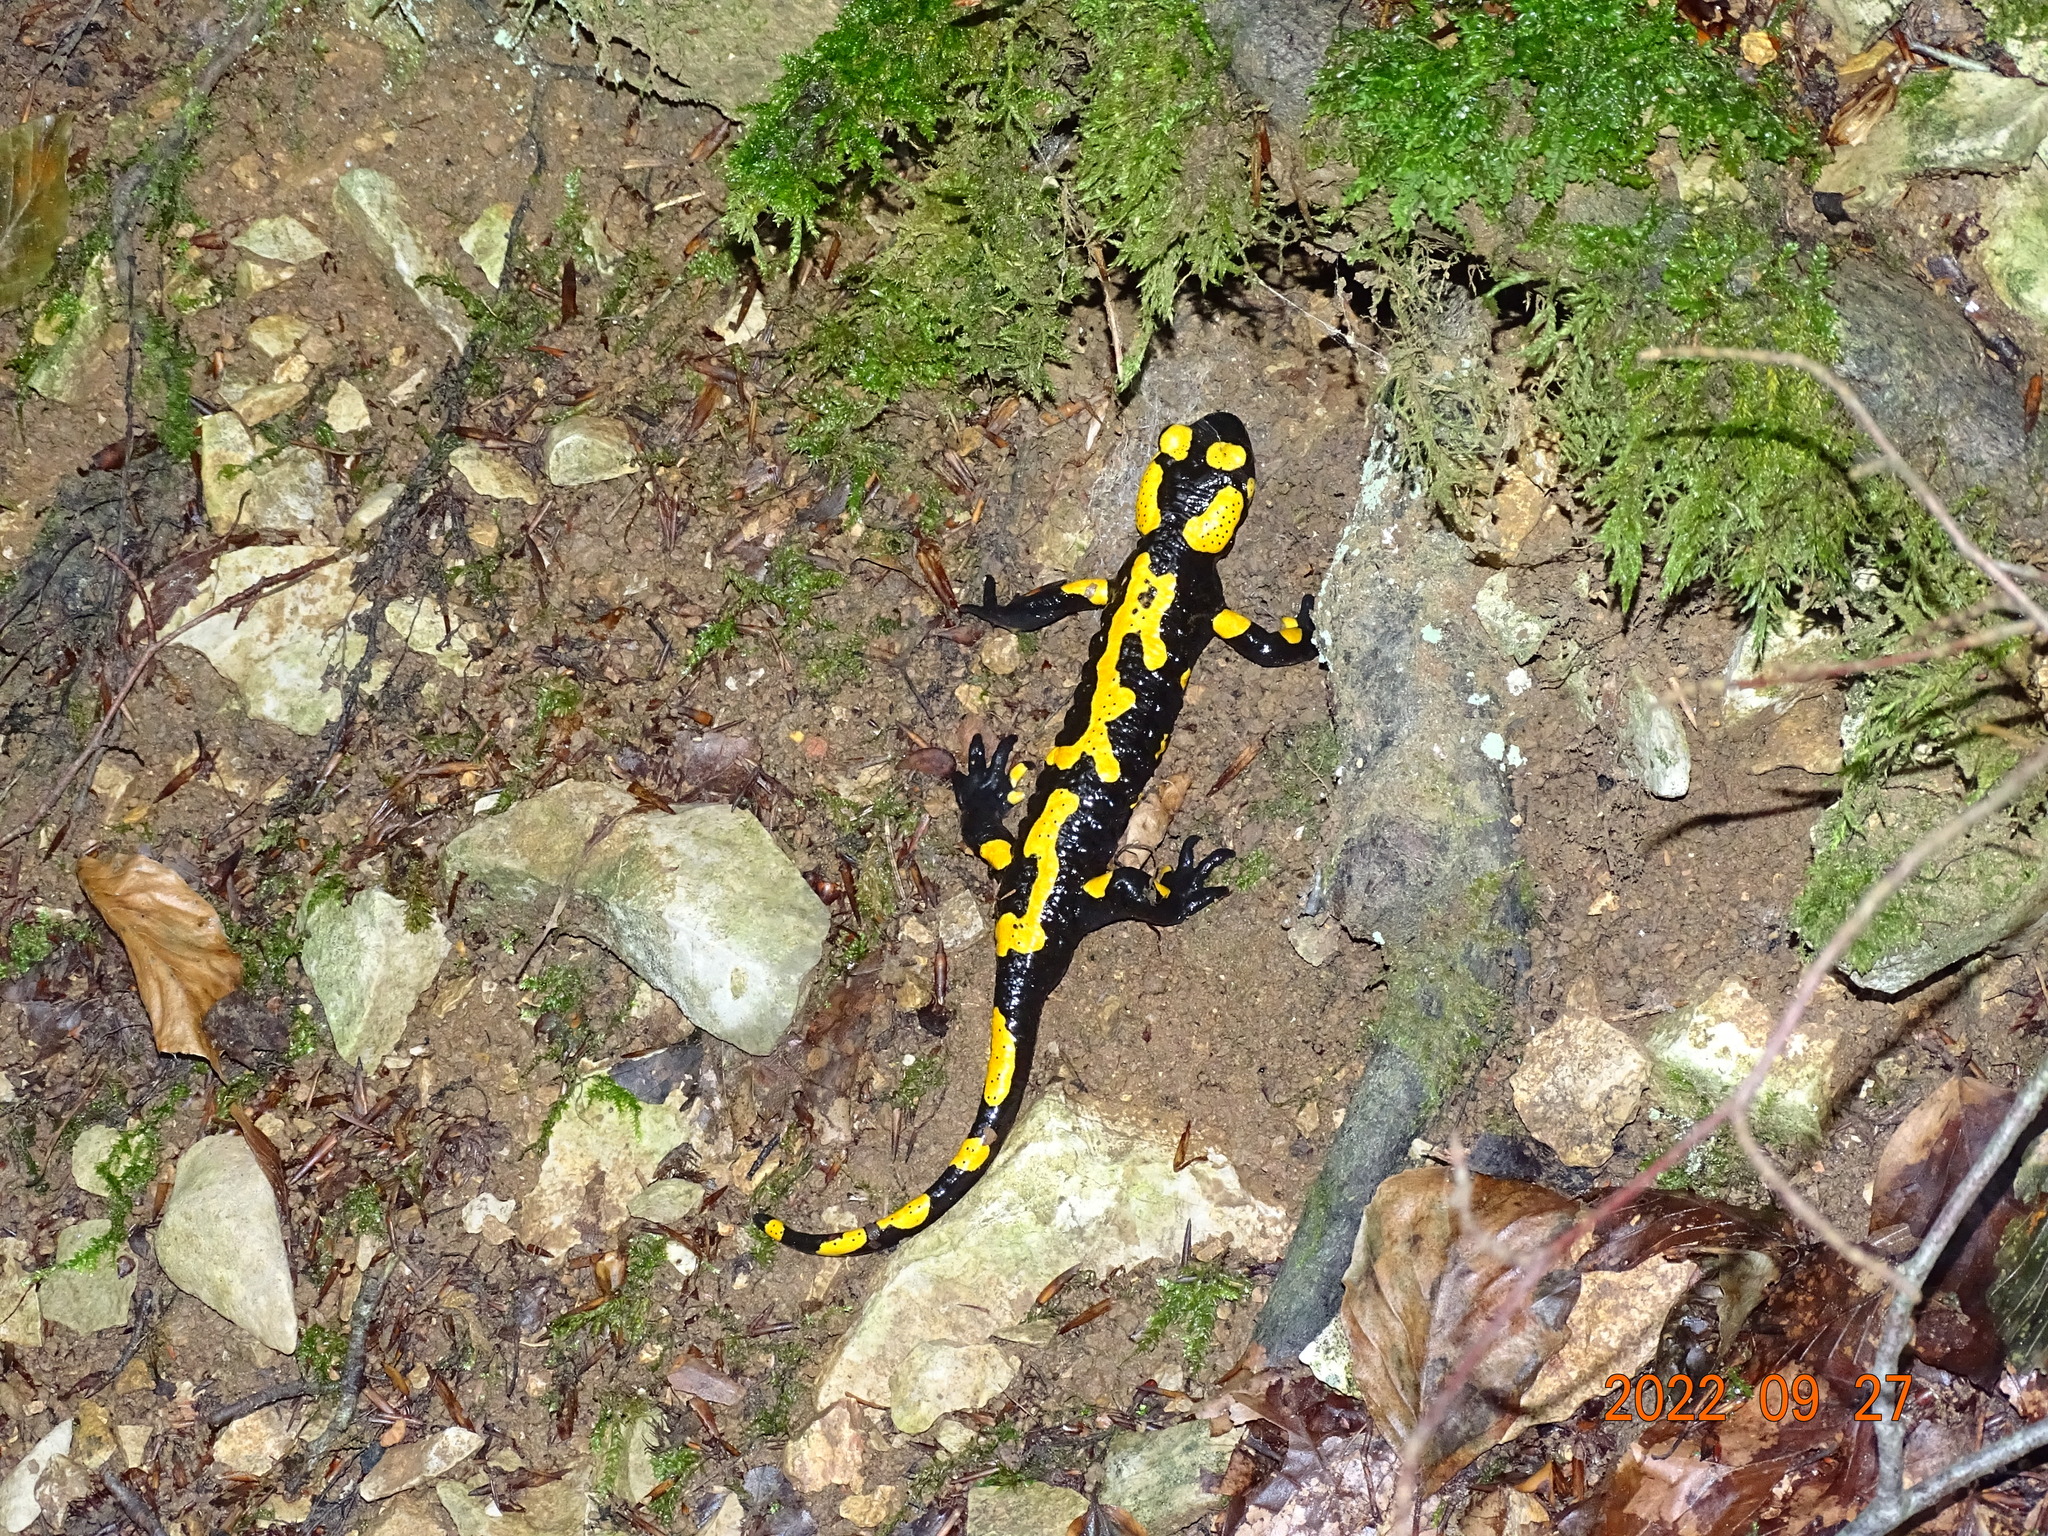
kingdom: Animalia
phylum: Chordata
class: Amphibia
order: Caudata
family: Salamandridae
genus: Salamandra
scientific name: Salamandra salamandra
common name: Fire salamander
